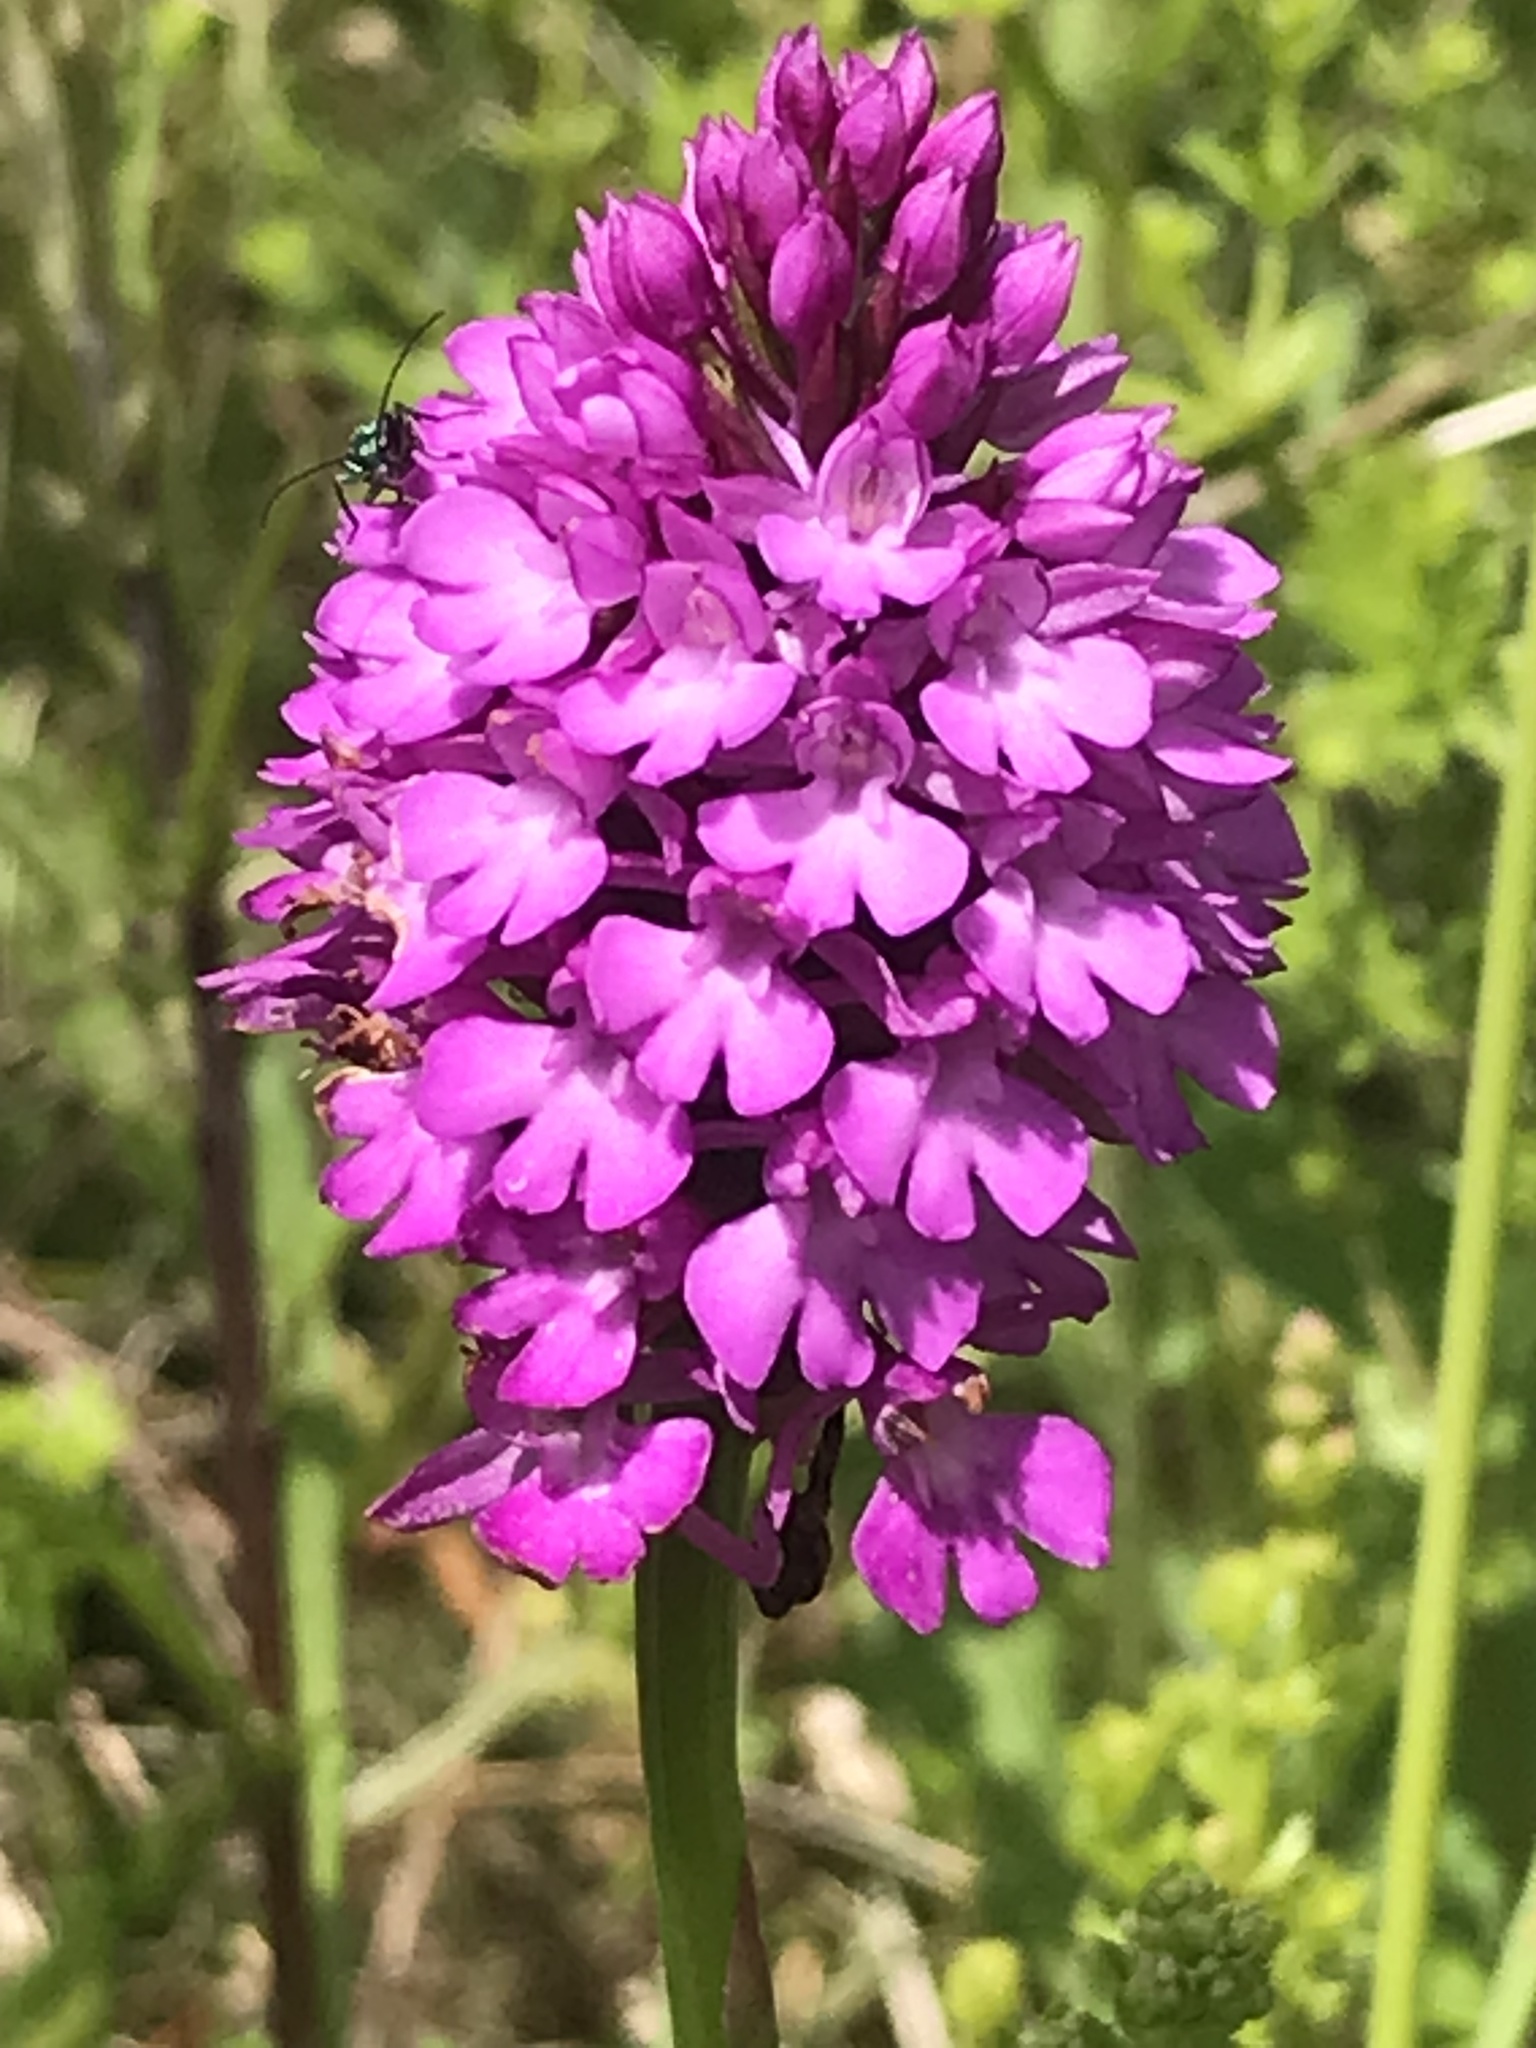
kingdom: Plantae
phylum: Tracheophyta
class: Liliopsida
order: Asparagales
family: Orchidaceae
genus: Anacamptis
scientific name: Anacamptis pyramidalis
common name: Pyramidal orchid
